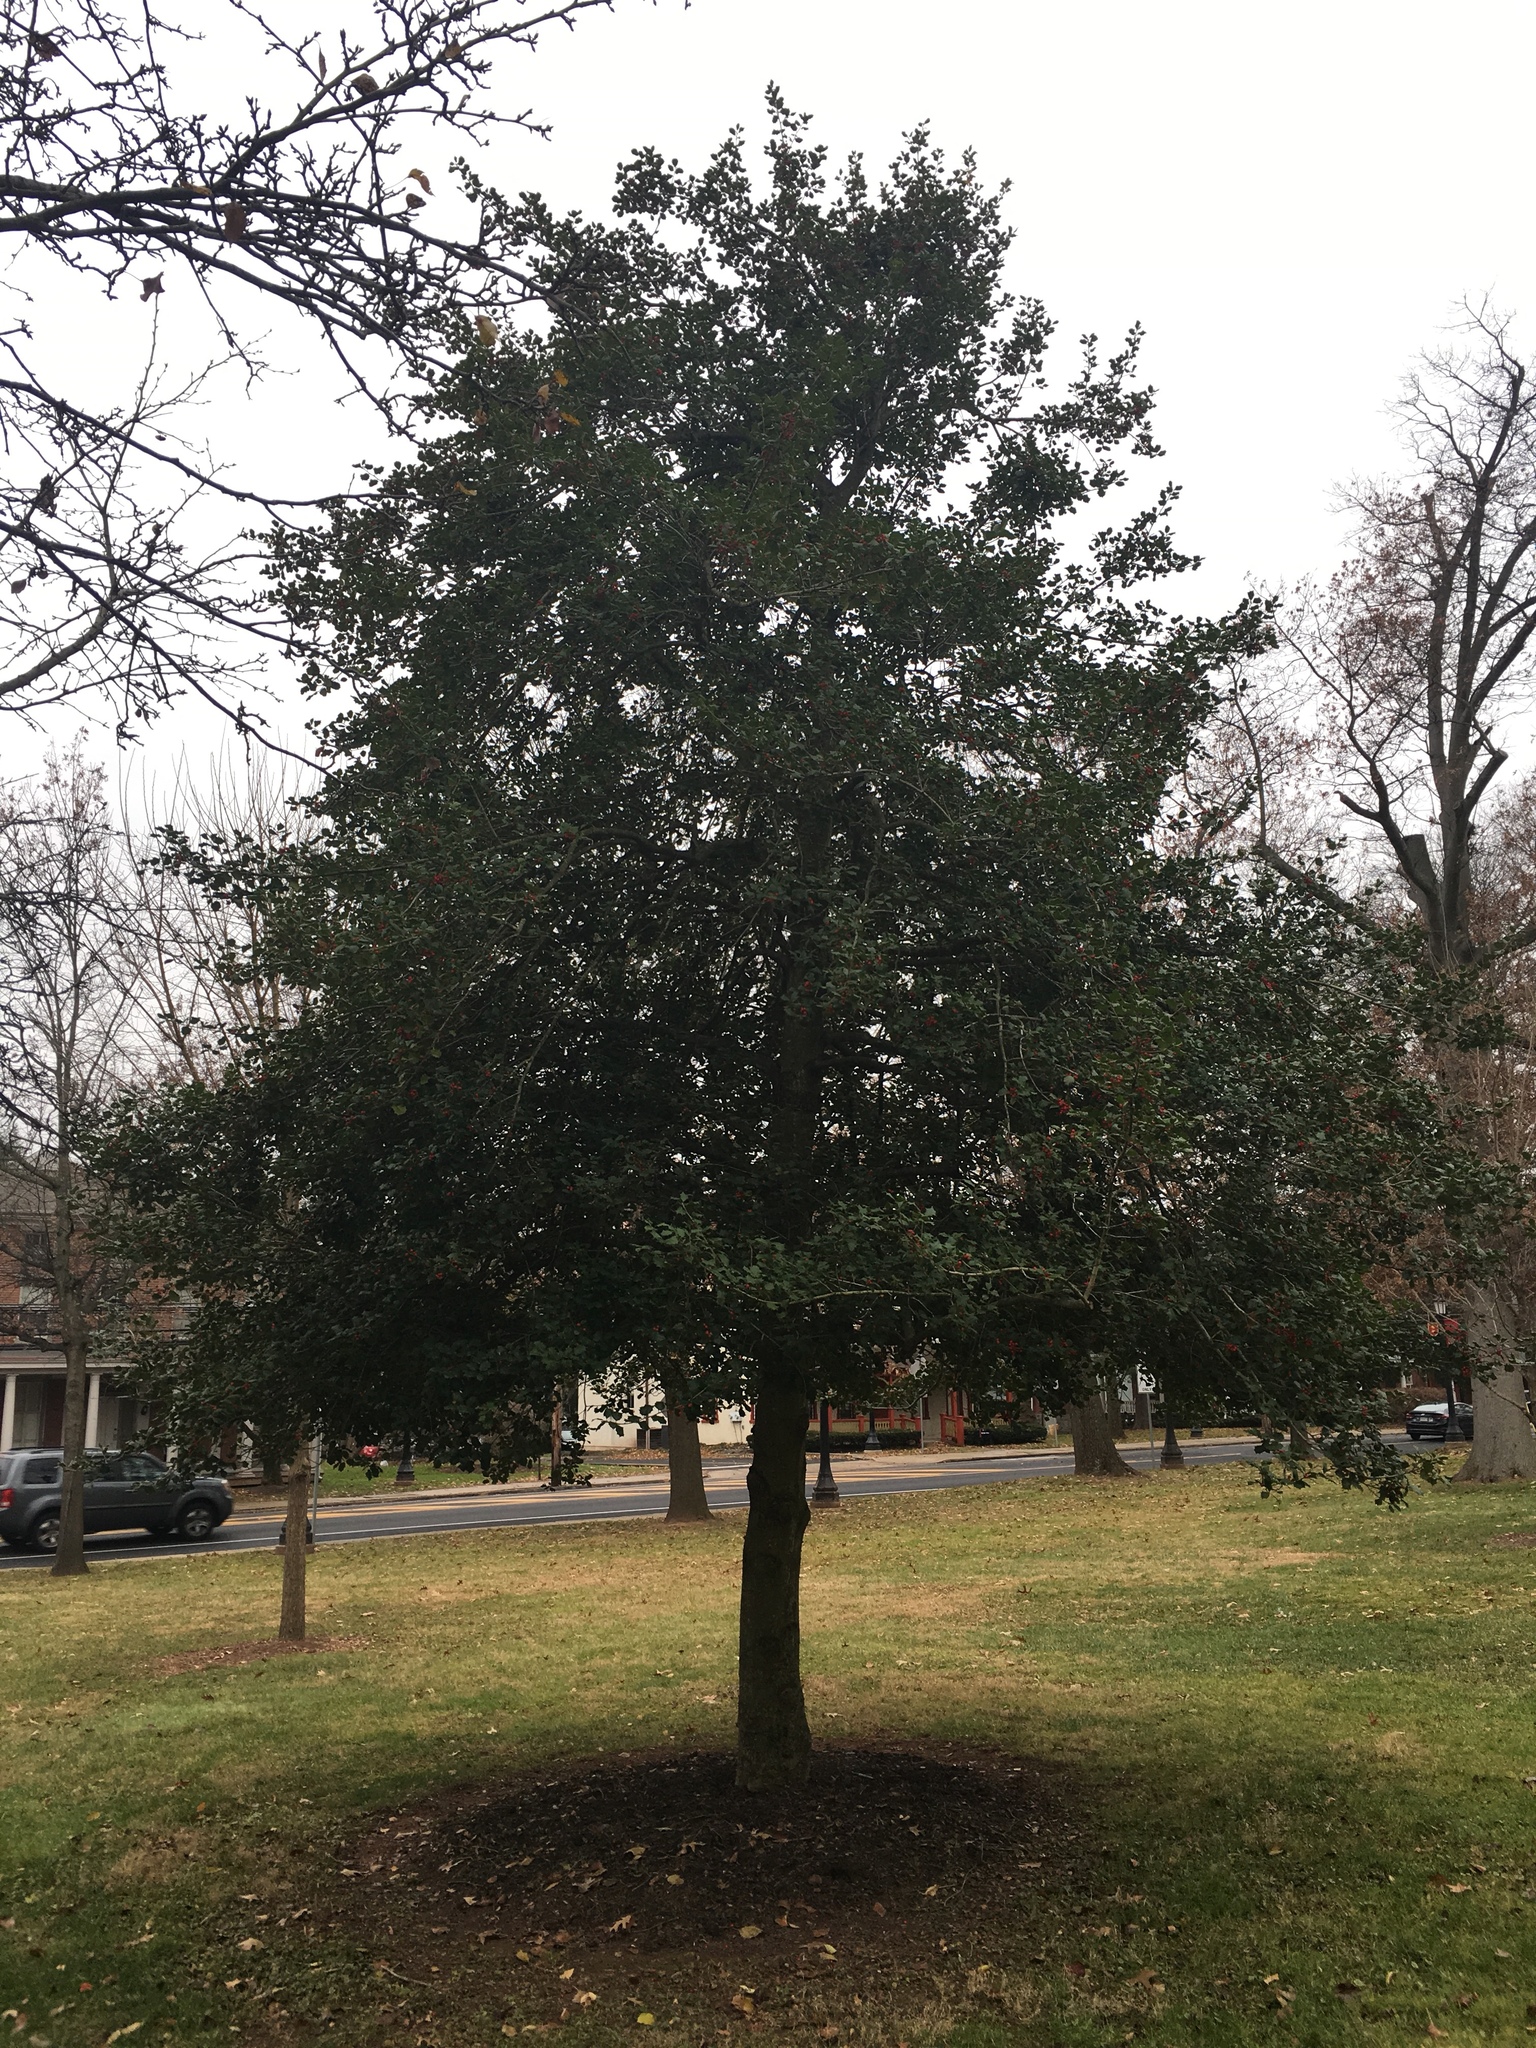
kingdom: Plantae
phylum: Tracheophyta
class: Magnoliopsida
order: Aquifoliales
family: Aquifoliaceae
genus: Ilex
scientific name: Ilex opaca
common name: American holly
